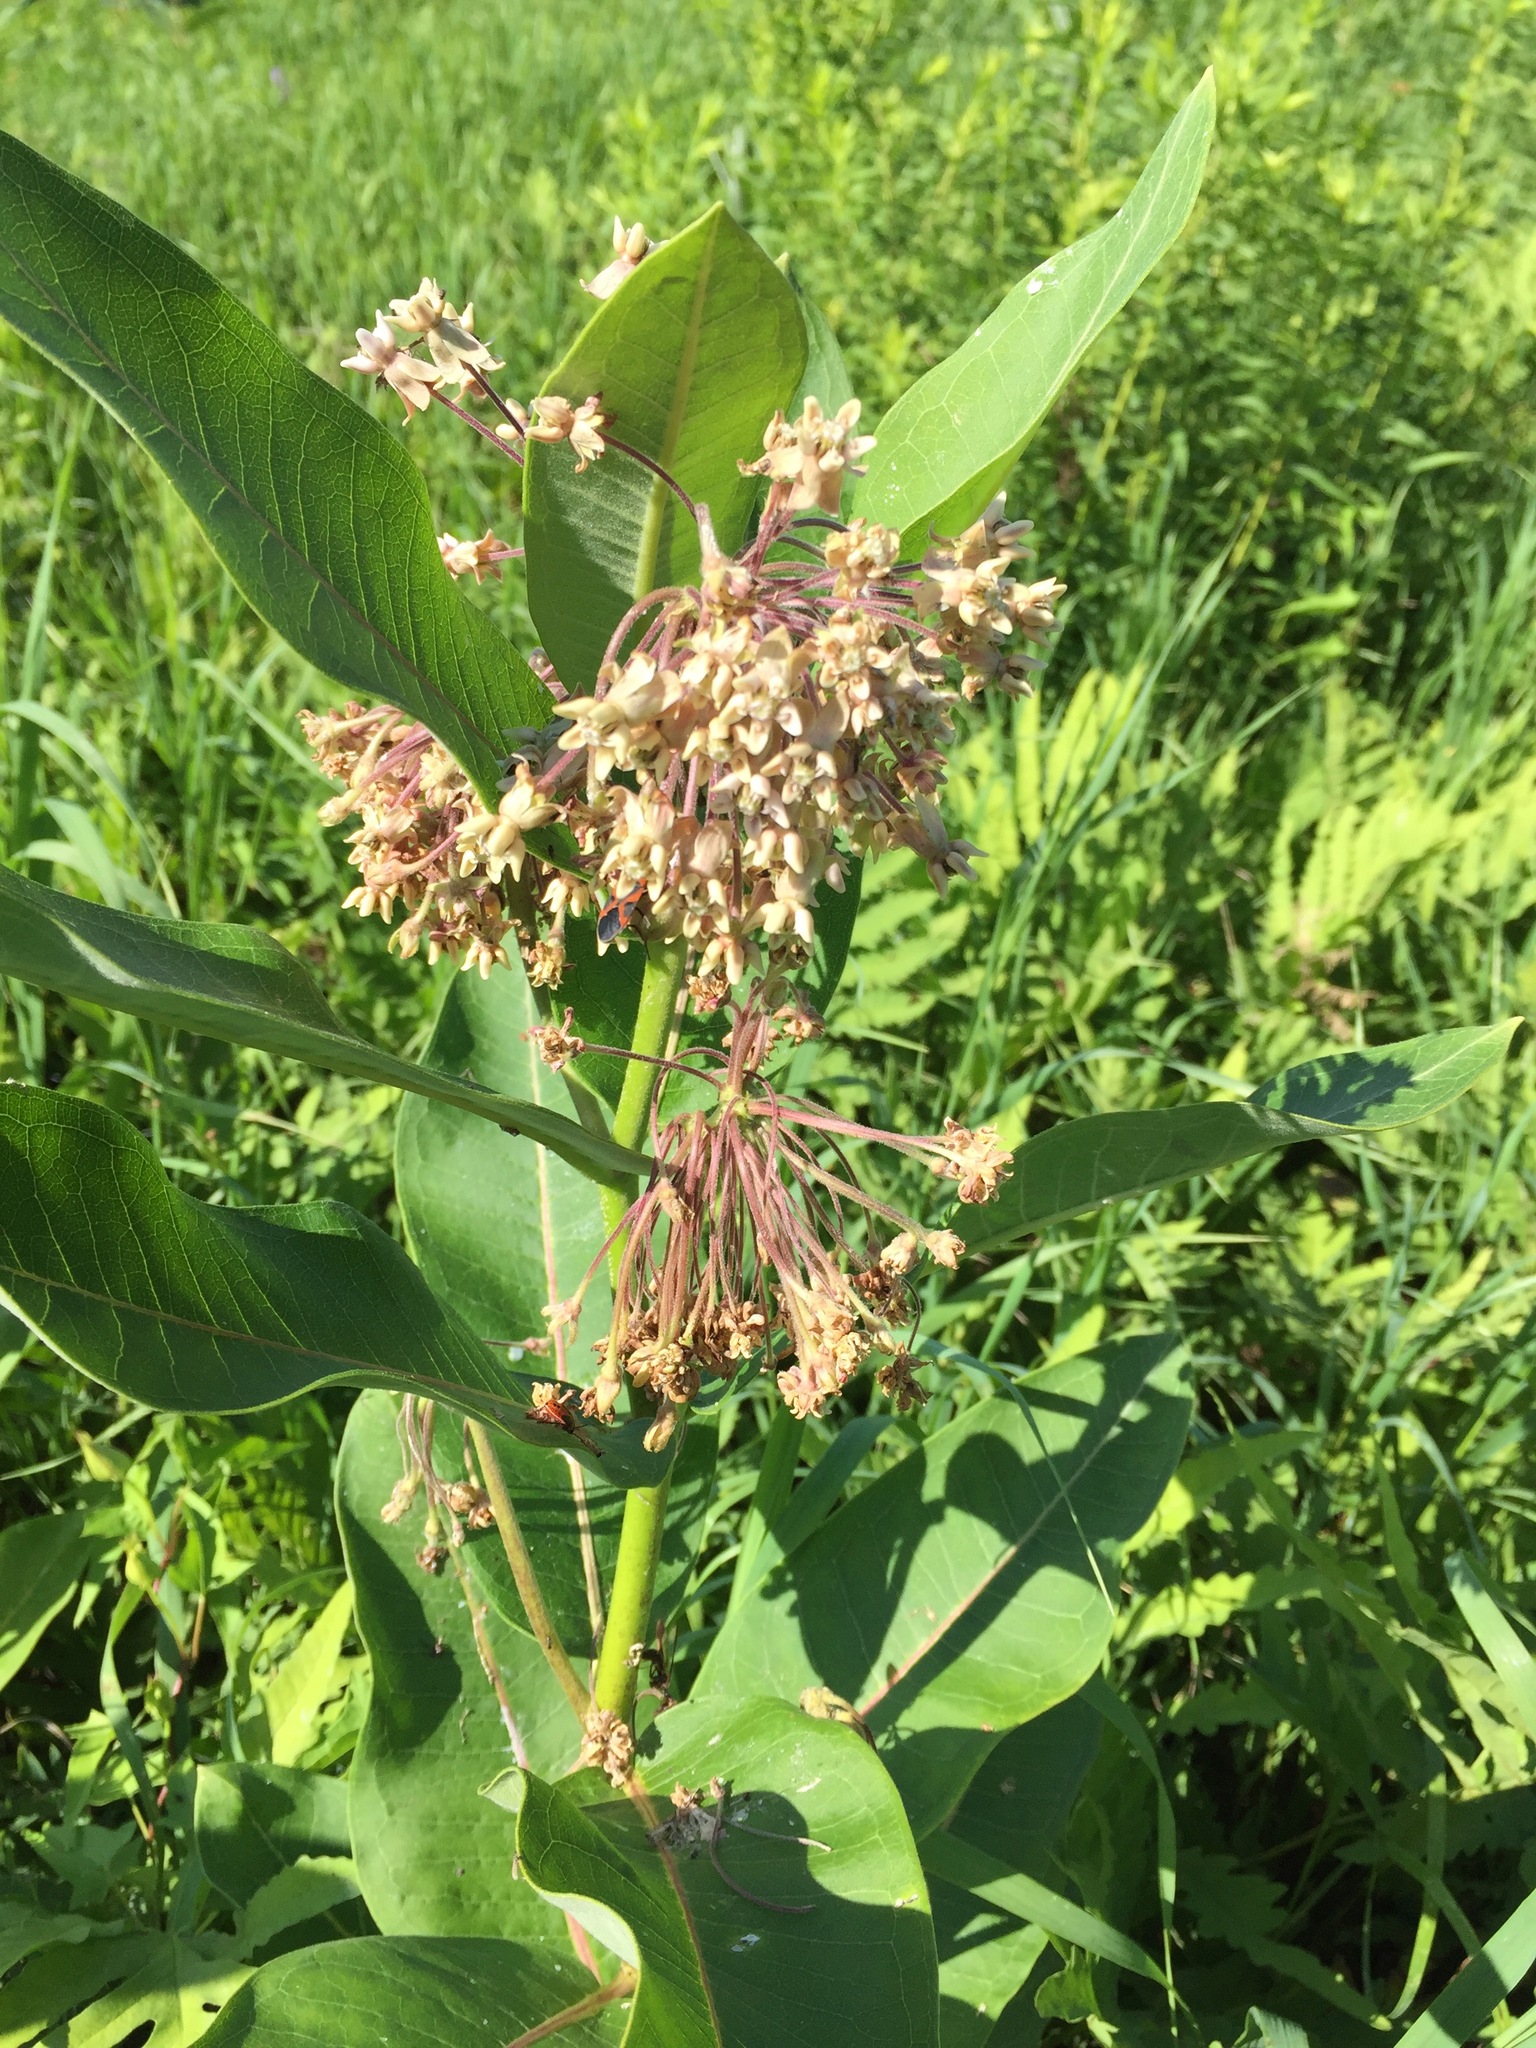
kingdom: Plantae
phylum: Tracheophyta
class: Magnoliopsida
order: Gentianales
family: Apocynaceae
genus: Asclepias
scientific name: Asclepias syriaca
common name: Common milkweed
